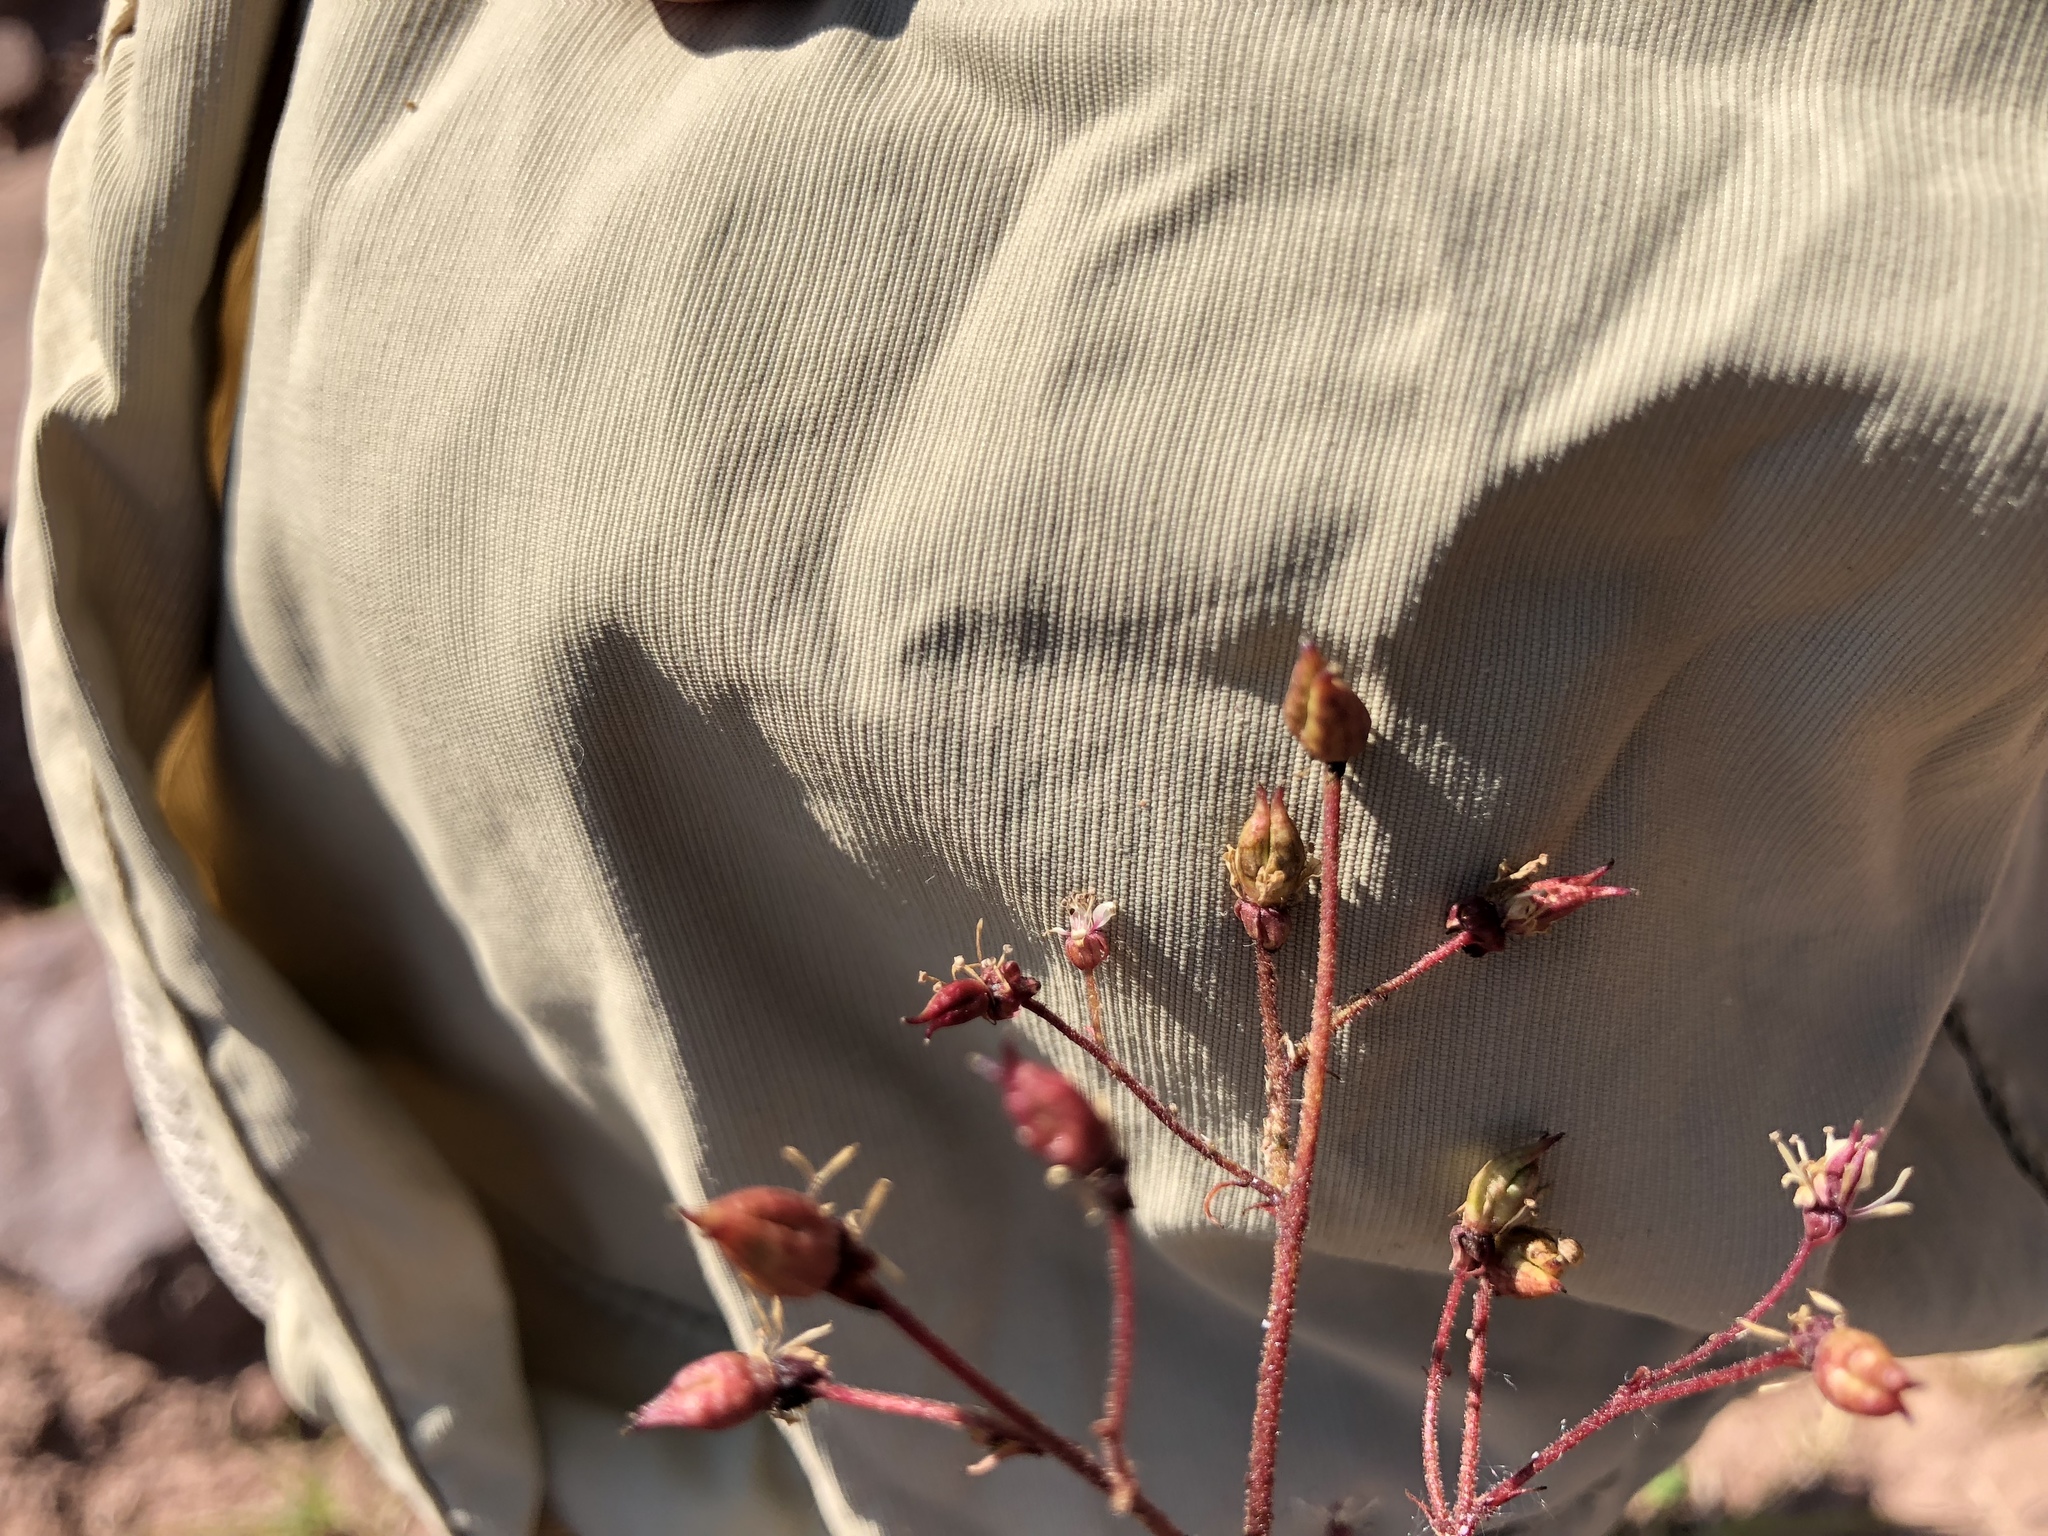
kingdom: Plantae
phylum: Tracheophyta
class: Magnoliopsida
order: Saxifragales
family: Saxifragaceae
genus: Micranthes
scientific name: Micranthes odontoloma
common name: Brook saxifrage
